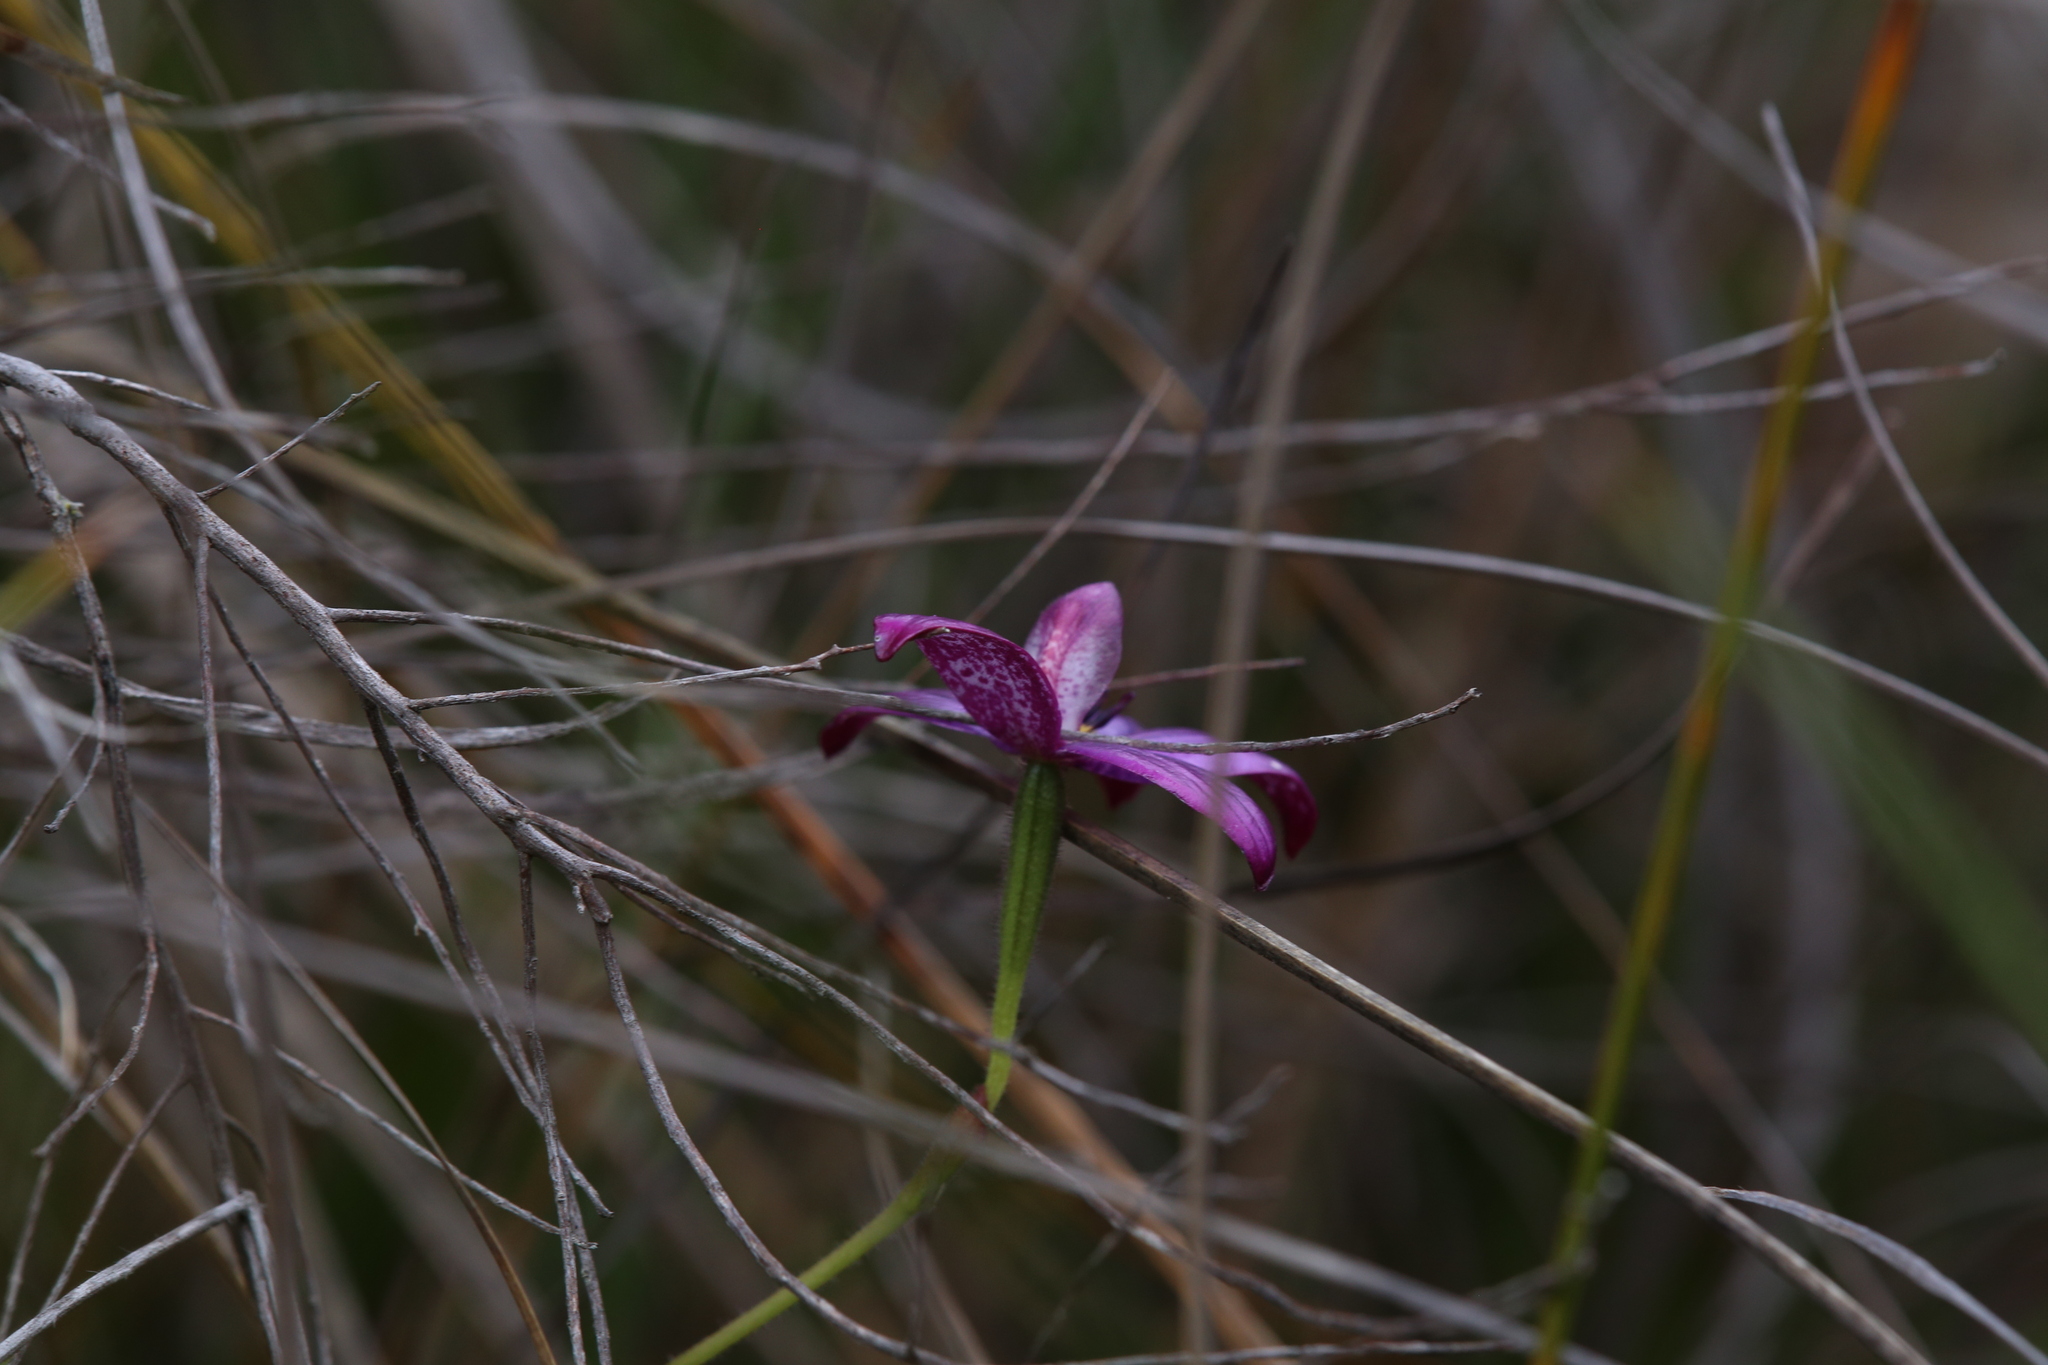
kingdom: Plantae
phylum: Tracheophyta
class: Liliopsida
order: Asparagales
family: Orchidaceae
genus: Caladenia
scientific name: Caladenia intermedia
